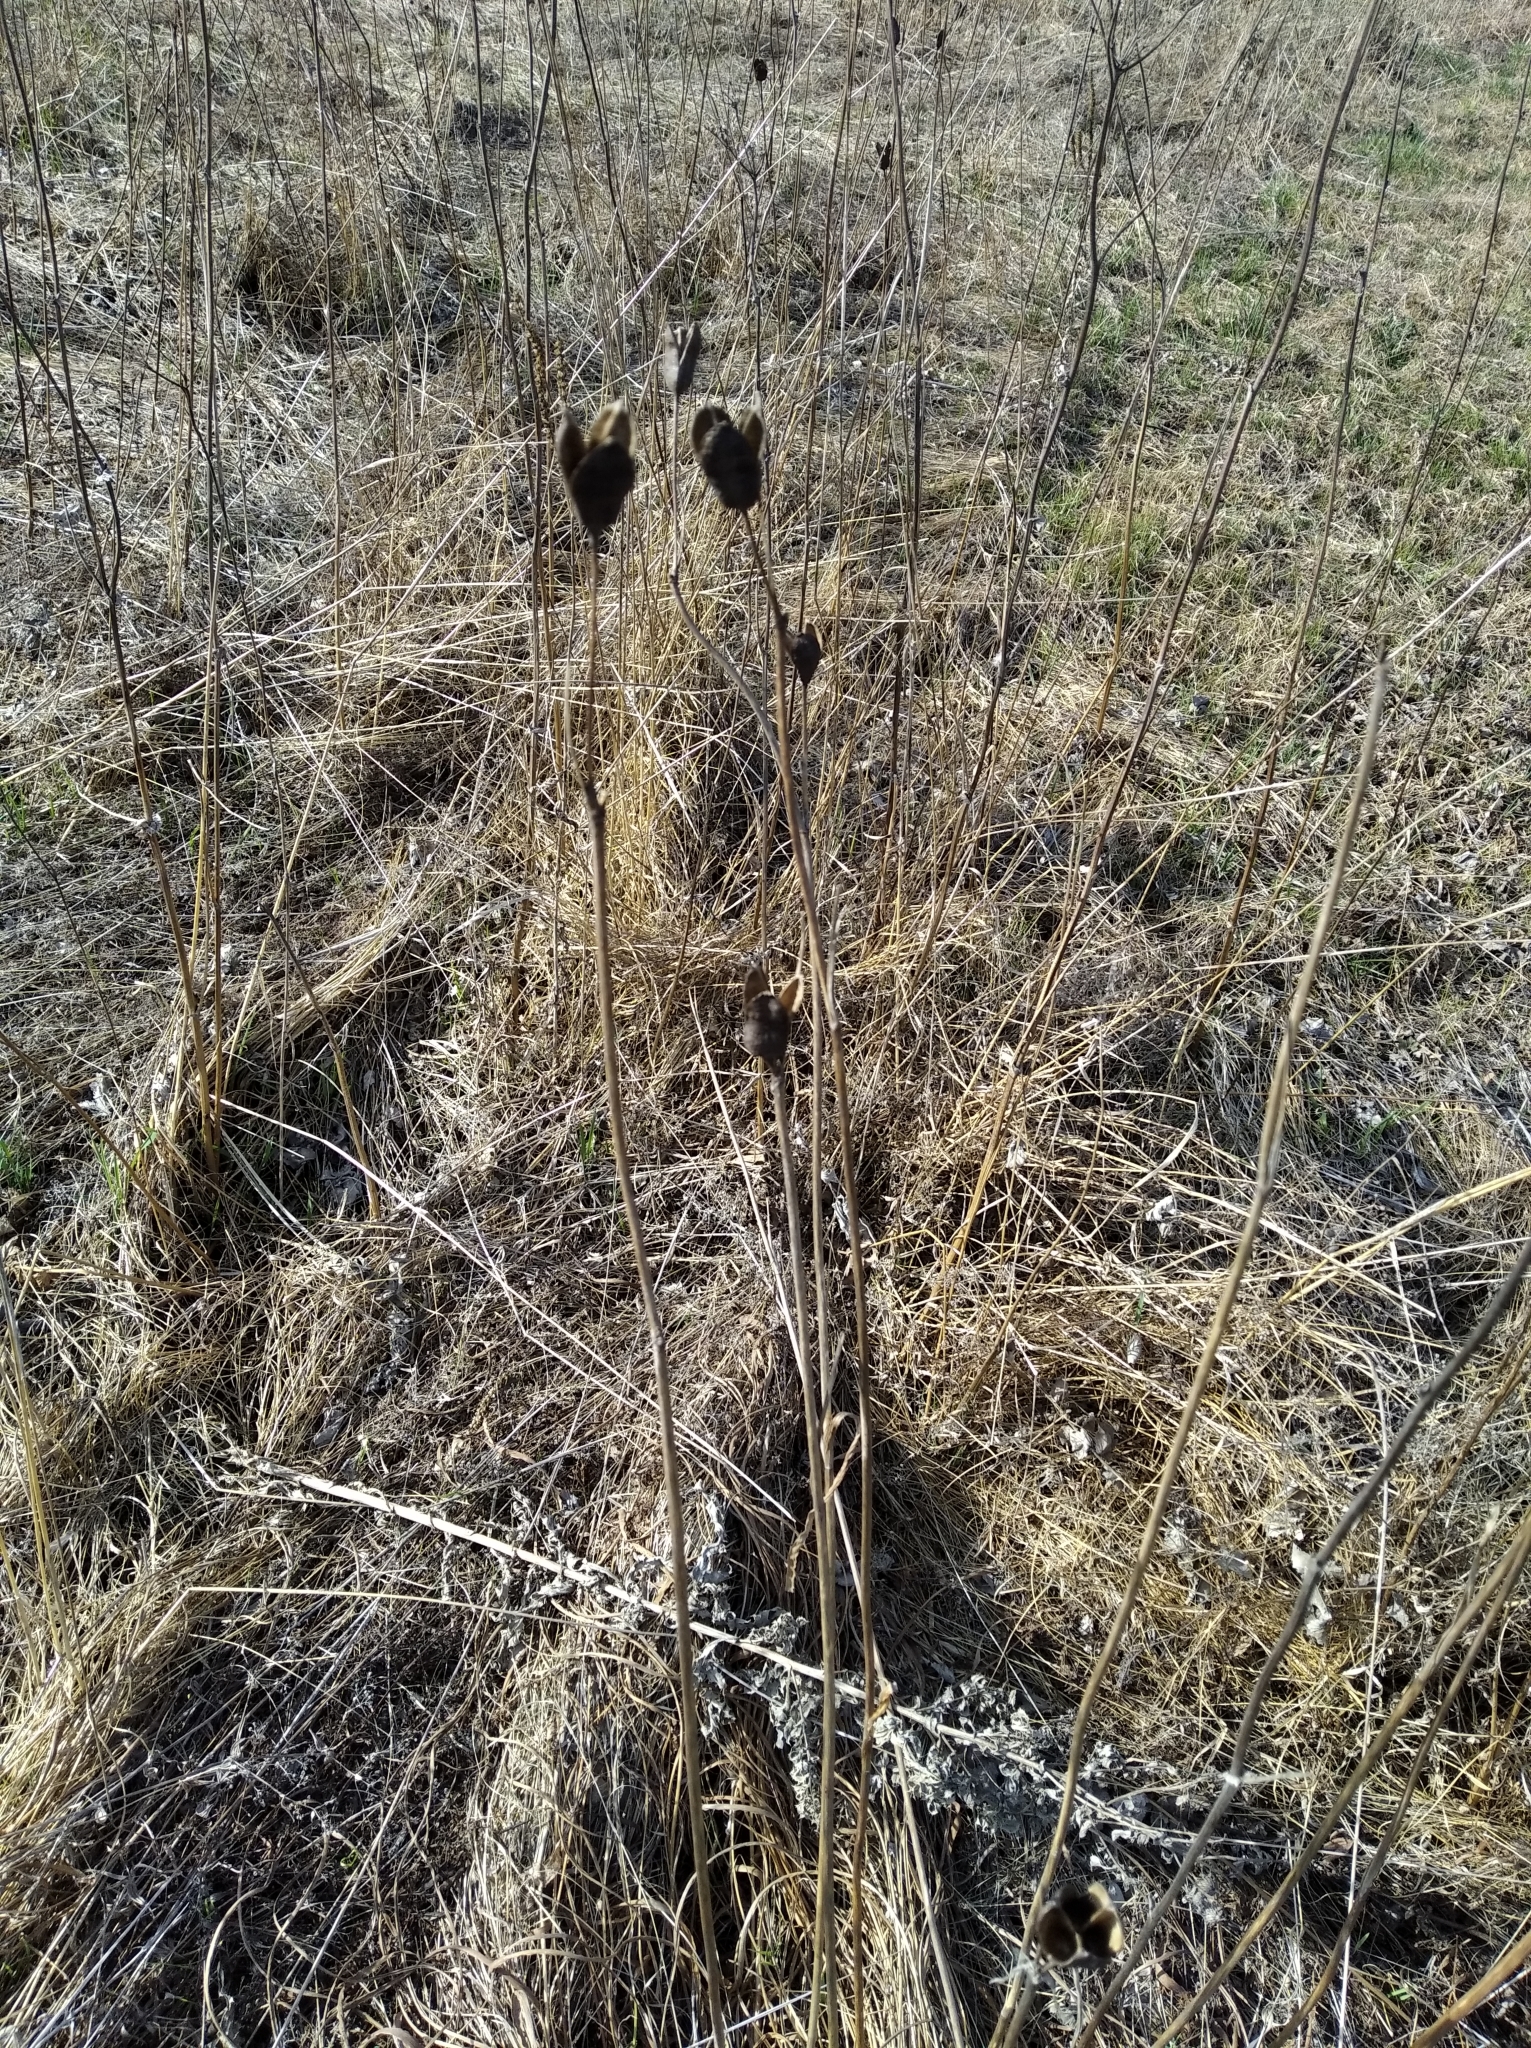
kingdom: Plantae
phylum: Tracheophyta
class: Liliopsida
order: Asparagales
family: Iridaceae
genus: Iris
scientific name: Iris sibirica
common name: Siberian iris
